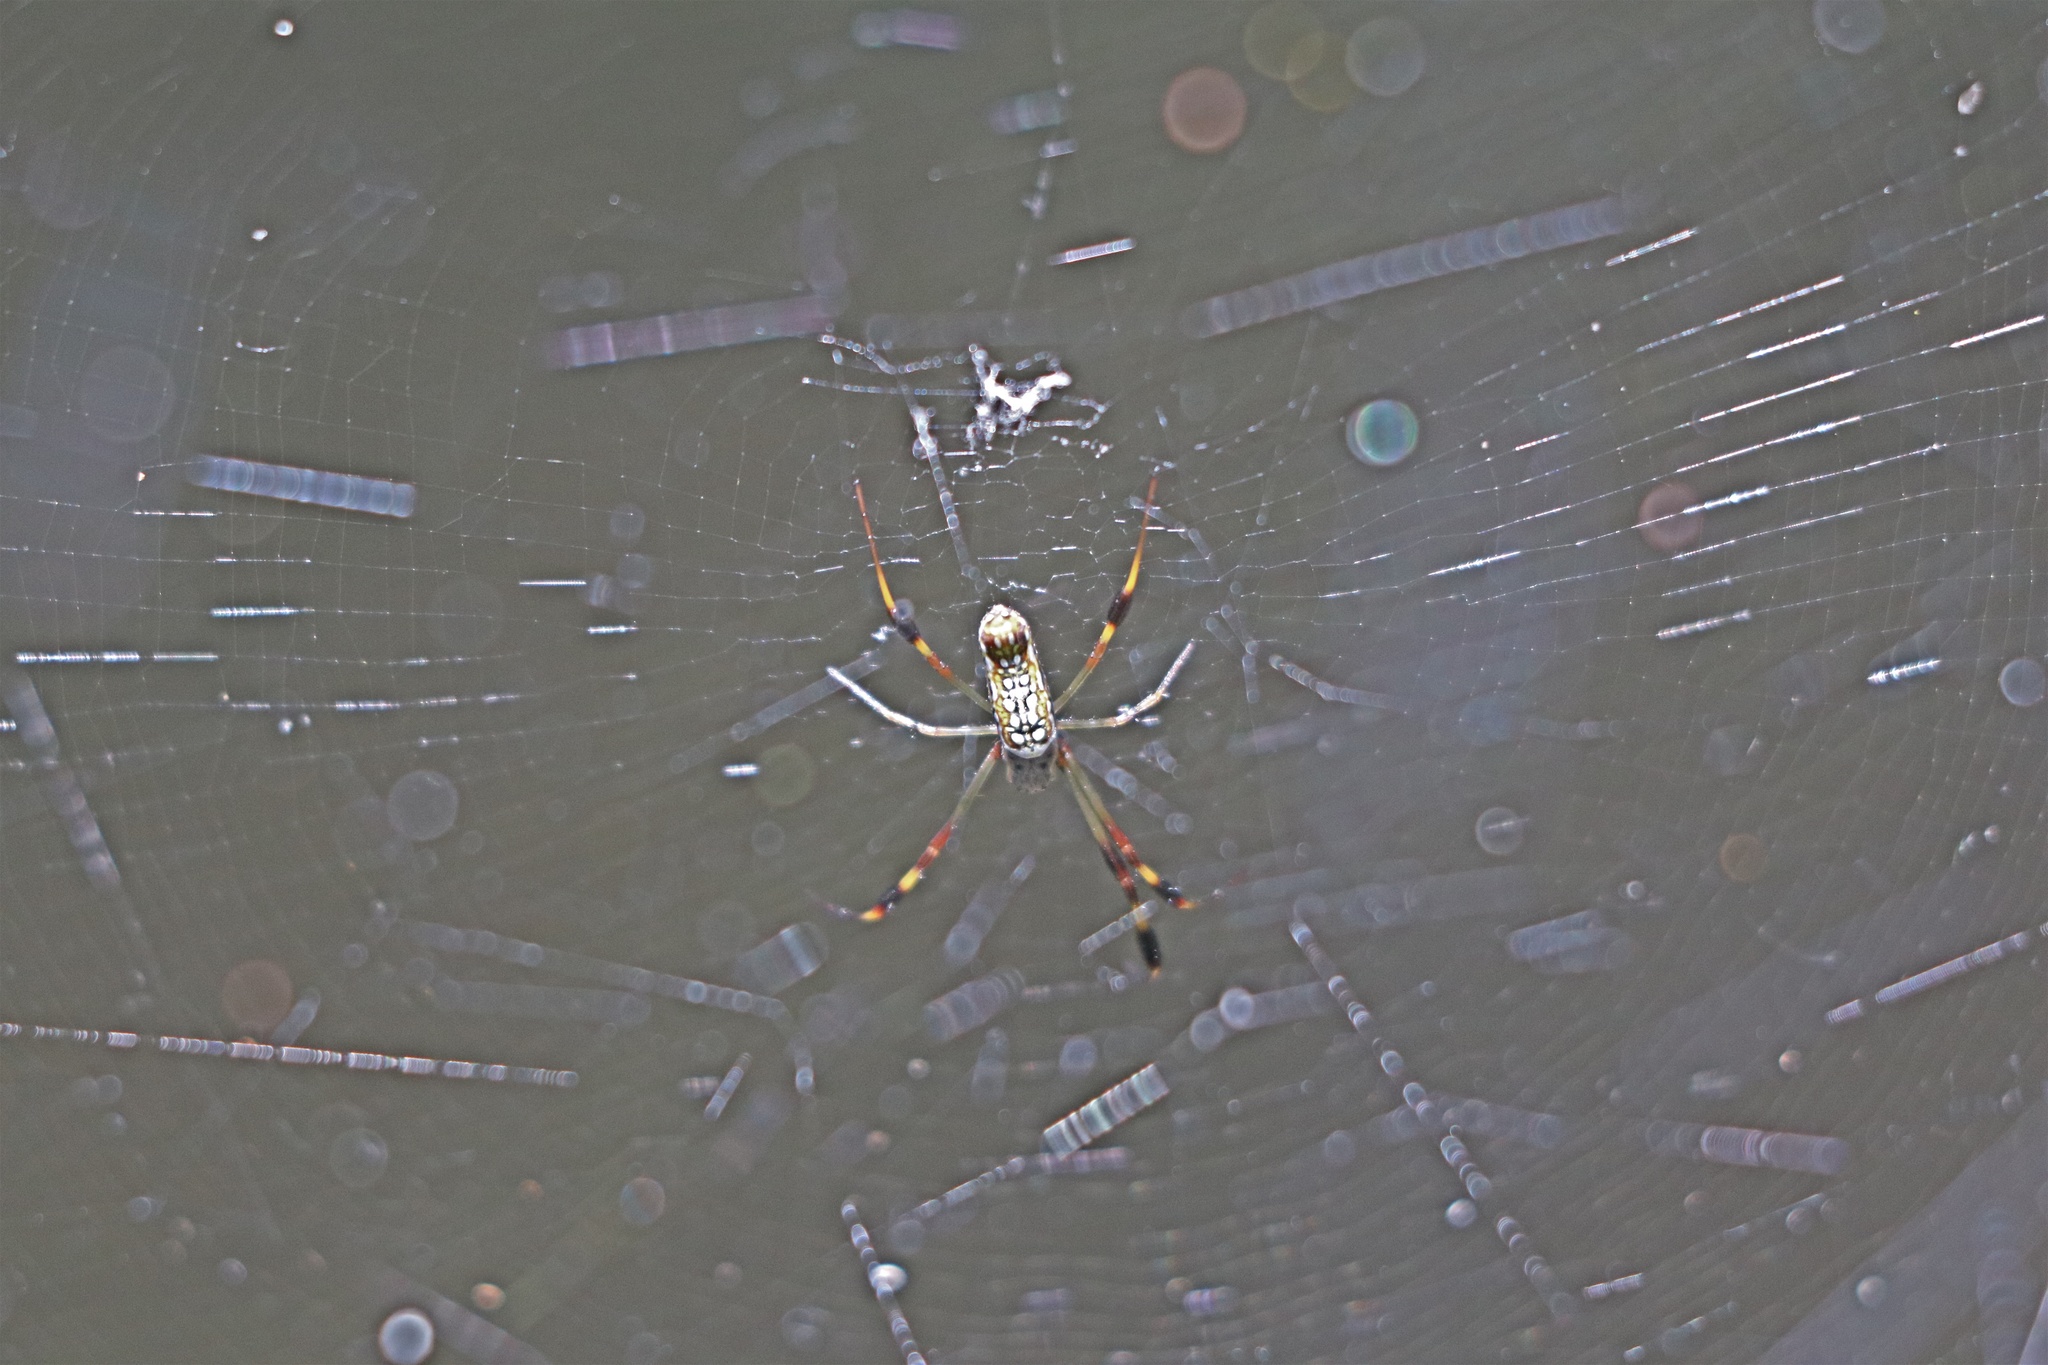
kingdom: Animalia
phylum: Arthropoda
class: Arachnida
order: Araneae
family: Araneidae
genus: Trichonephila
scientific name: Trichonephila clavipes
